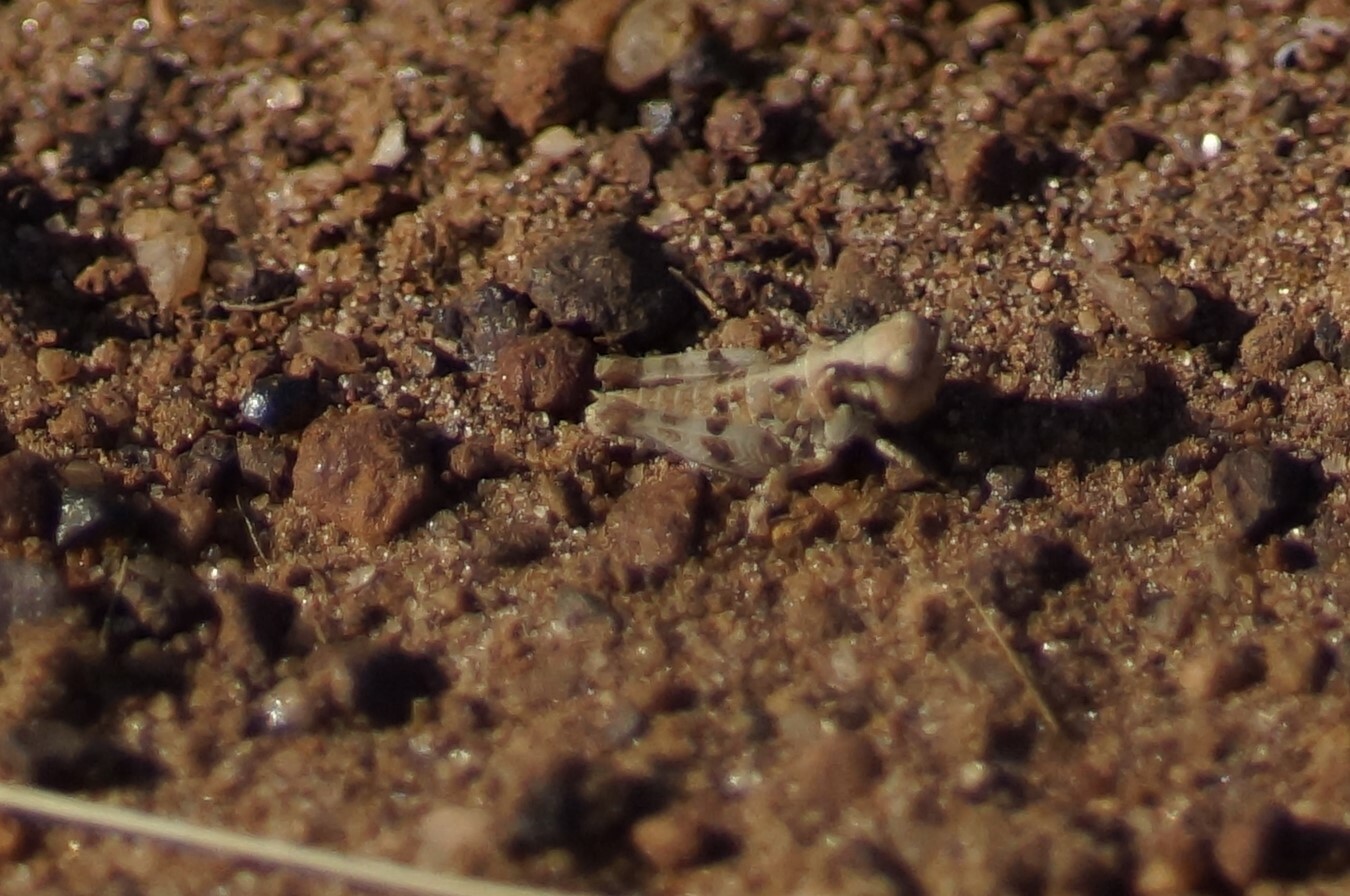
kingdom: Animalia
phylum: Arthropoda
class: Insecta
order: Orthoptera
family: Acrididae
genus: Pycnostictus
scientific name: Pycnostictus seriatus
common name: Common bandwing
